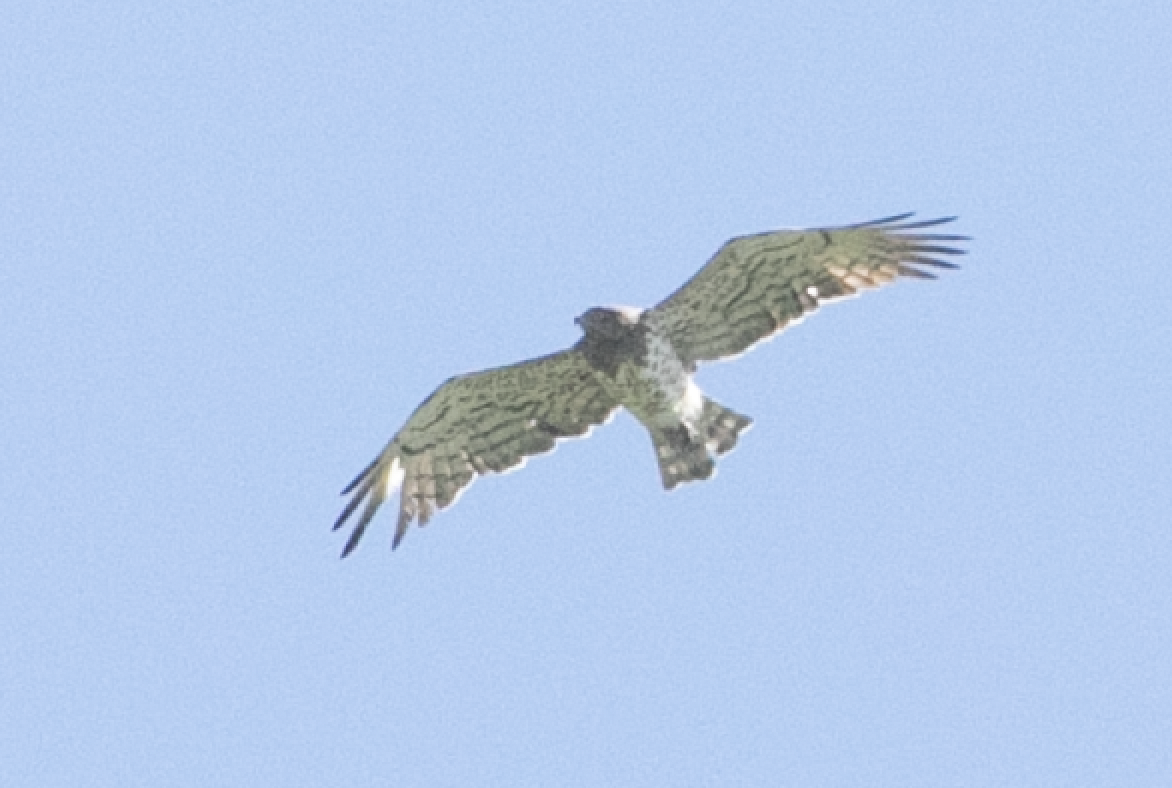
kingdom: Animalia
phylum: Chordata
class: Aves
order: Accipitriformes
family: Accipitridae
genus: Circaetus
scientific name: Circaetus gallicus
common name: Short-toed snake eagle
